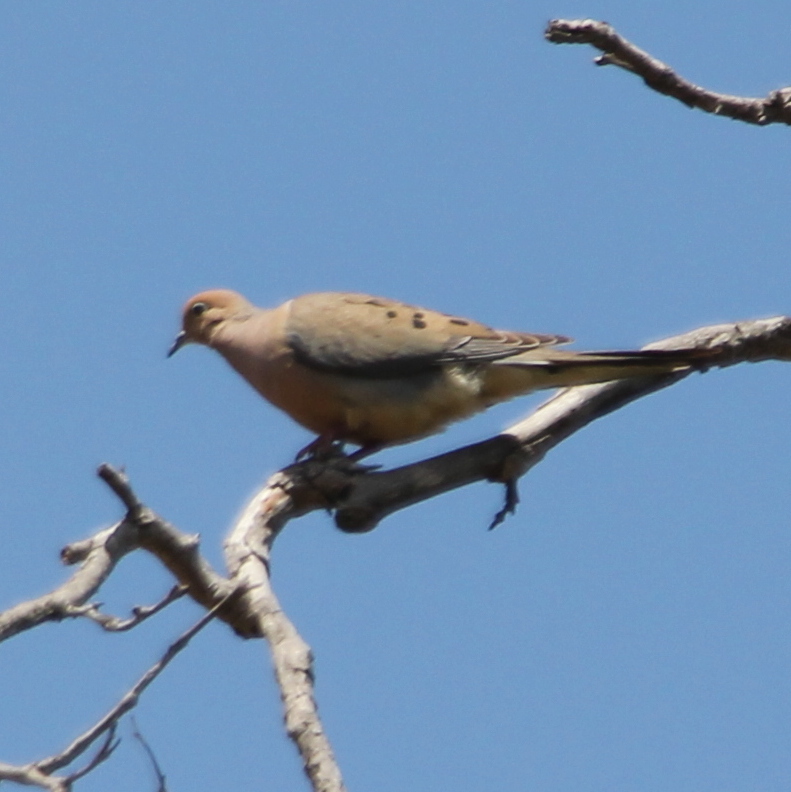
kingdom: Animalia
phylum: Chordata
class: Aves
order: Columbiformes
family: Columbidae
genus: Zenaida
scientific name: Zenaida macroura
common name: Mourning dove
